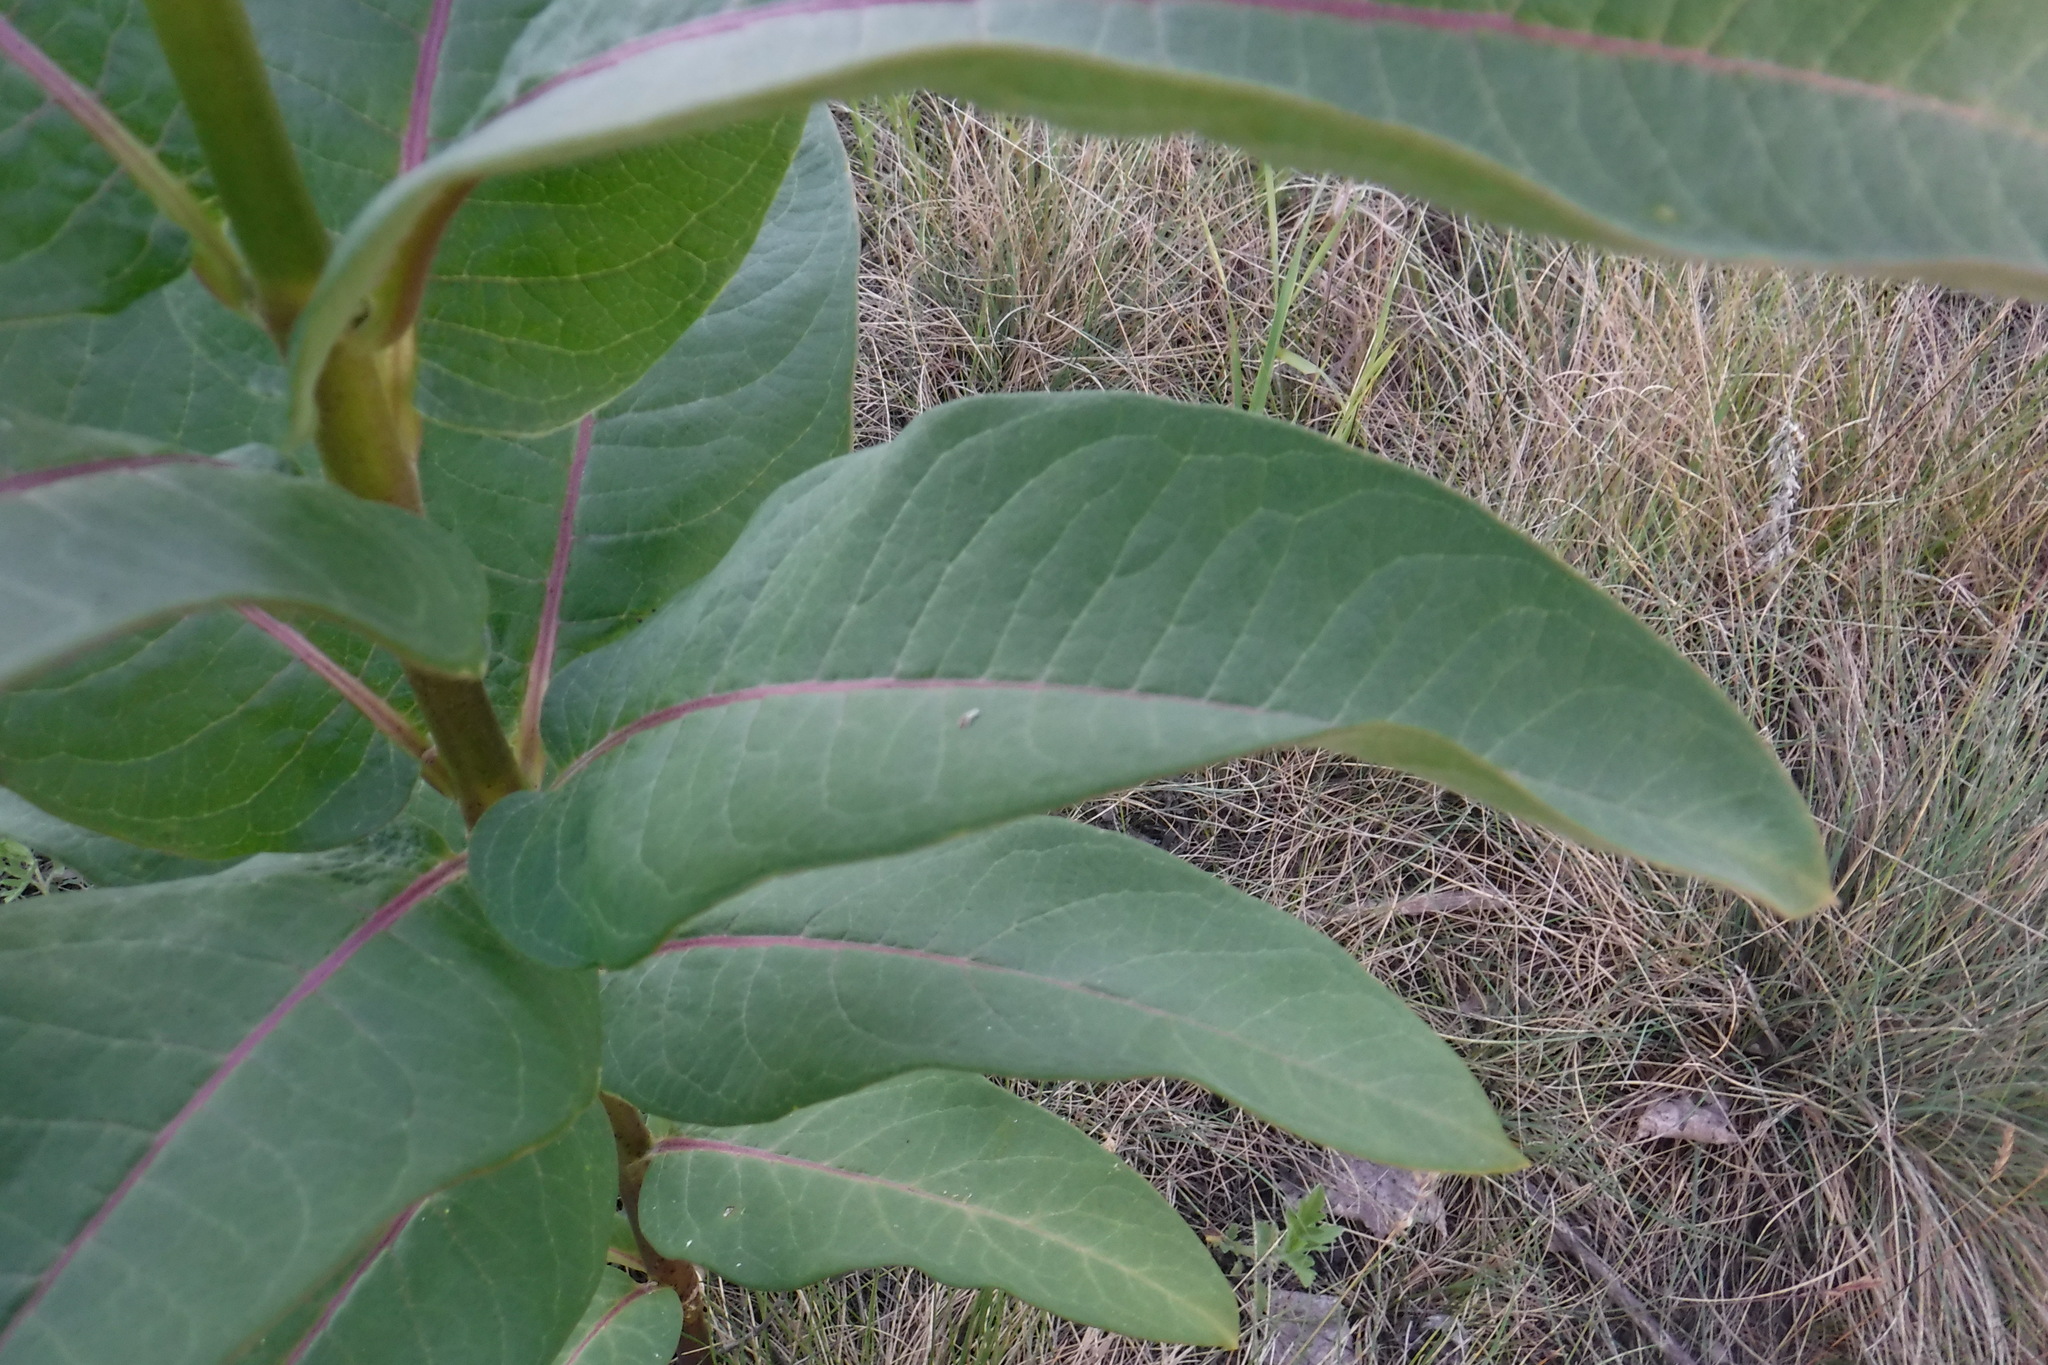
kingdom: Plantae
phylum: Tracheophyta
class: Magnoliopsida
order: Gentianales
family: Apocynaceae
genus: Asclepias
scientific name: Asclepias syriaca
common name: Common milkweed
